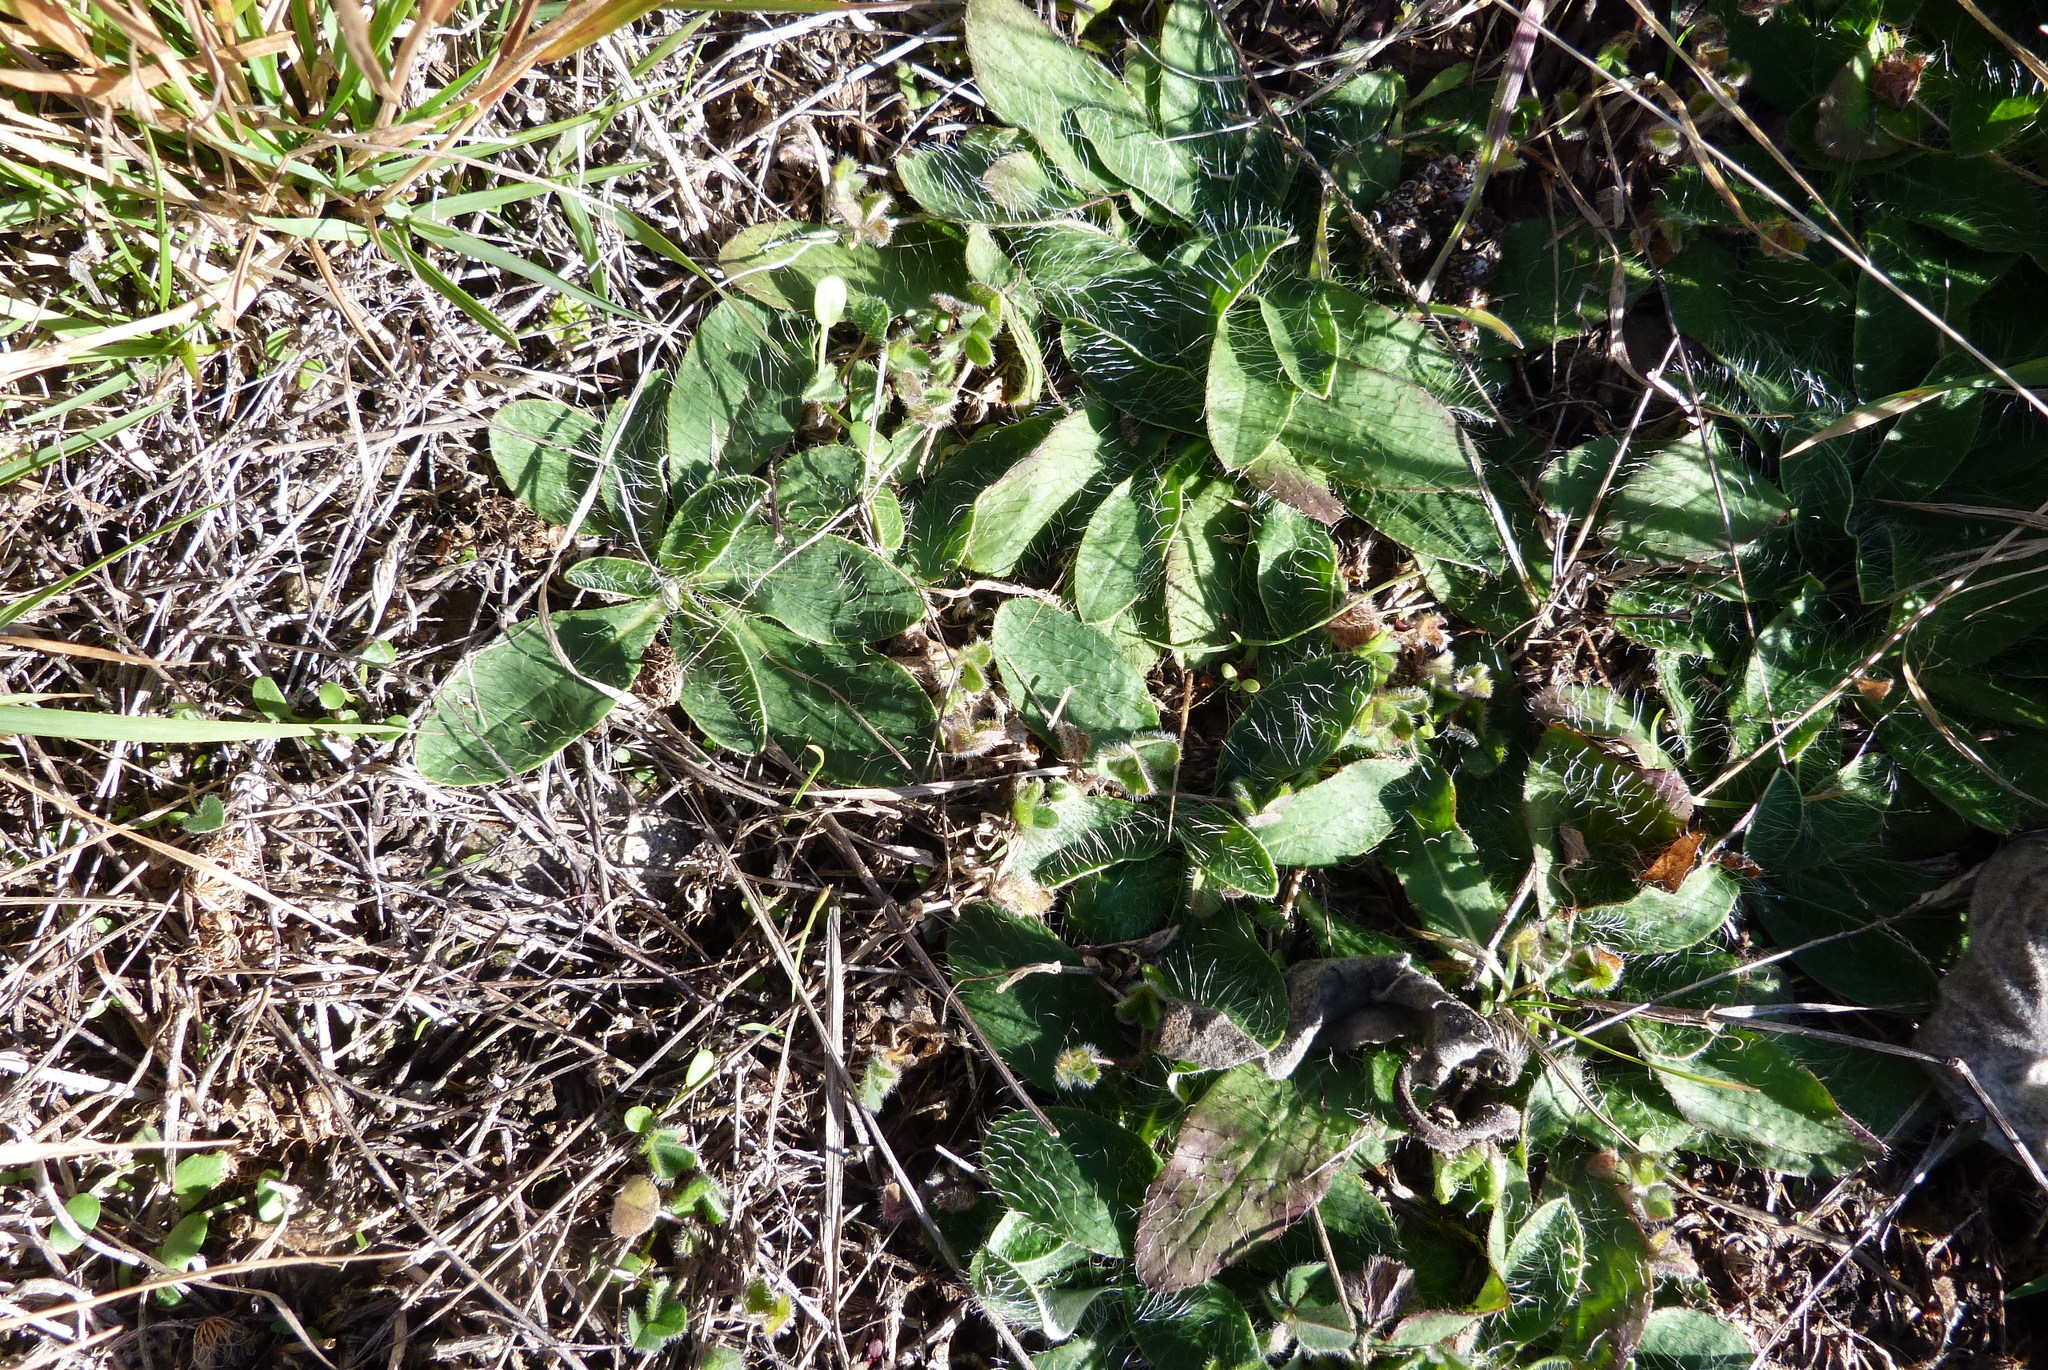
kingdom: Plantae
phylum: Tracheophyta
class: Magnoliopsida
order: Asterales
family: Asteraceae
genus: Pilosella
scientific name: Pilosella officinarum
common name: Mouse-ear hawkweed
